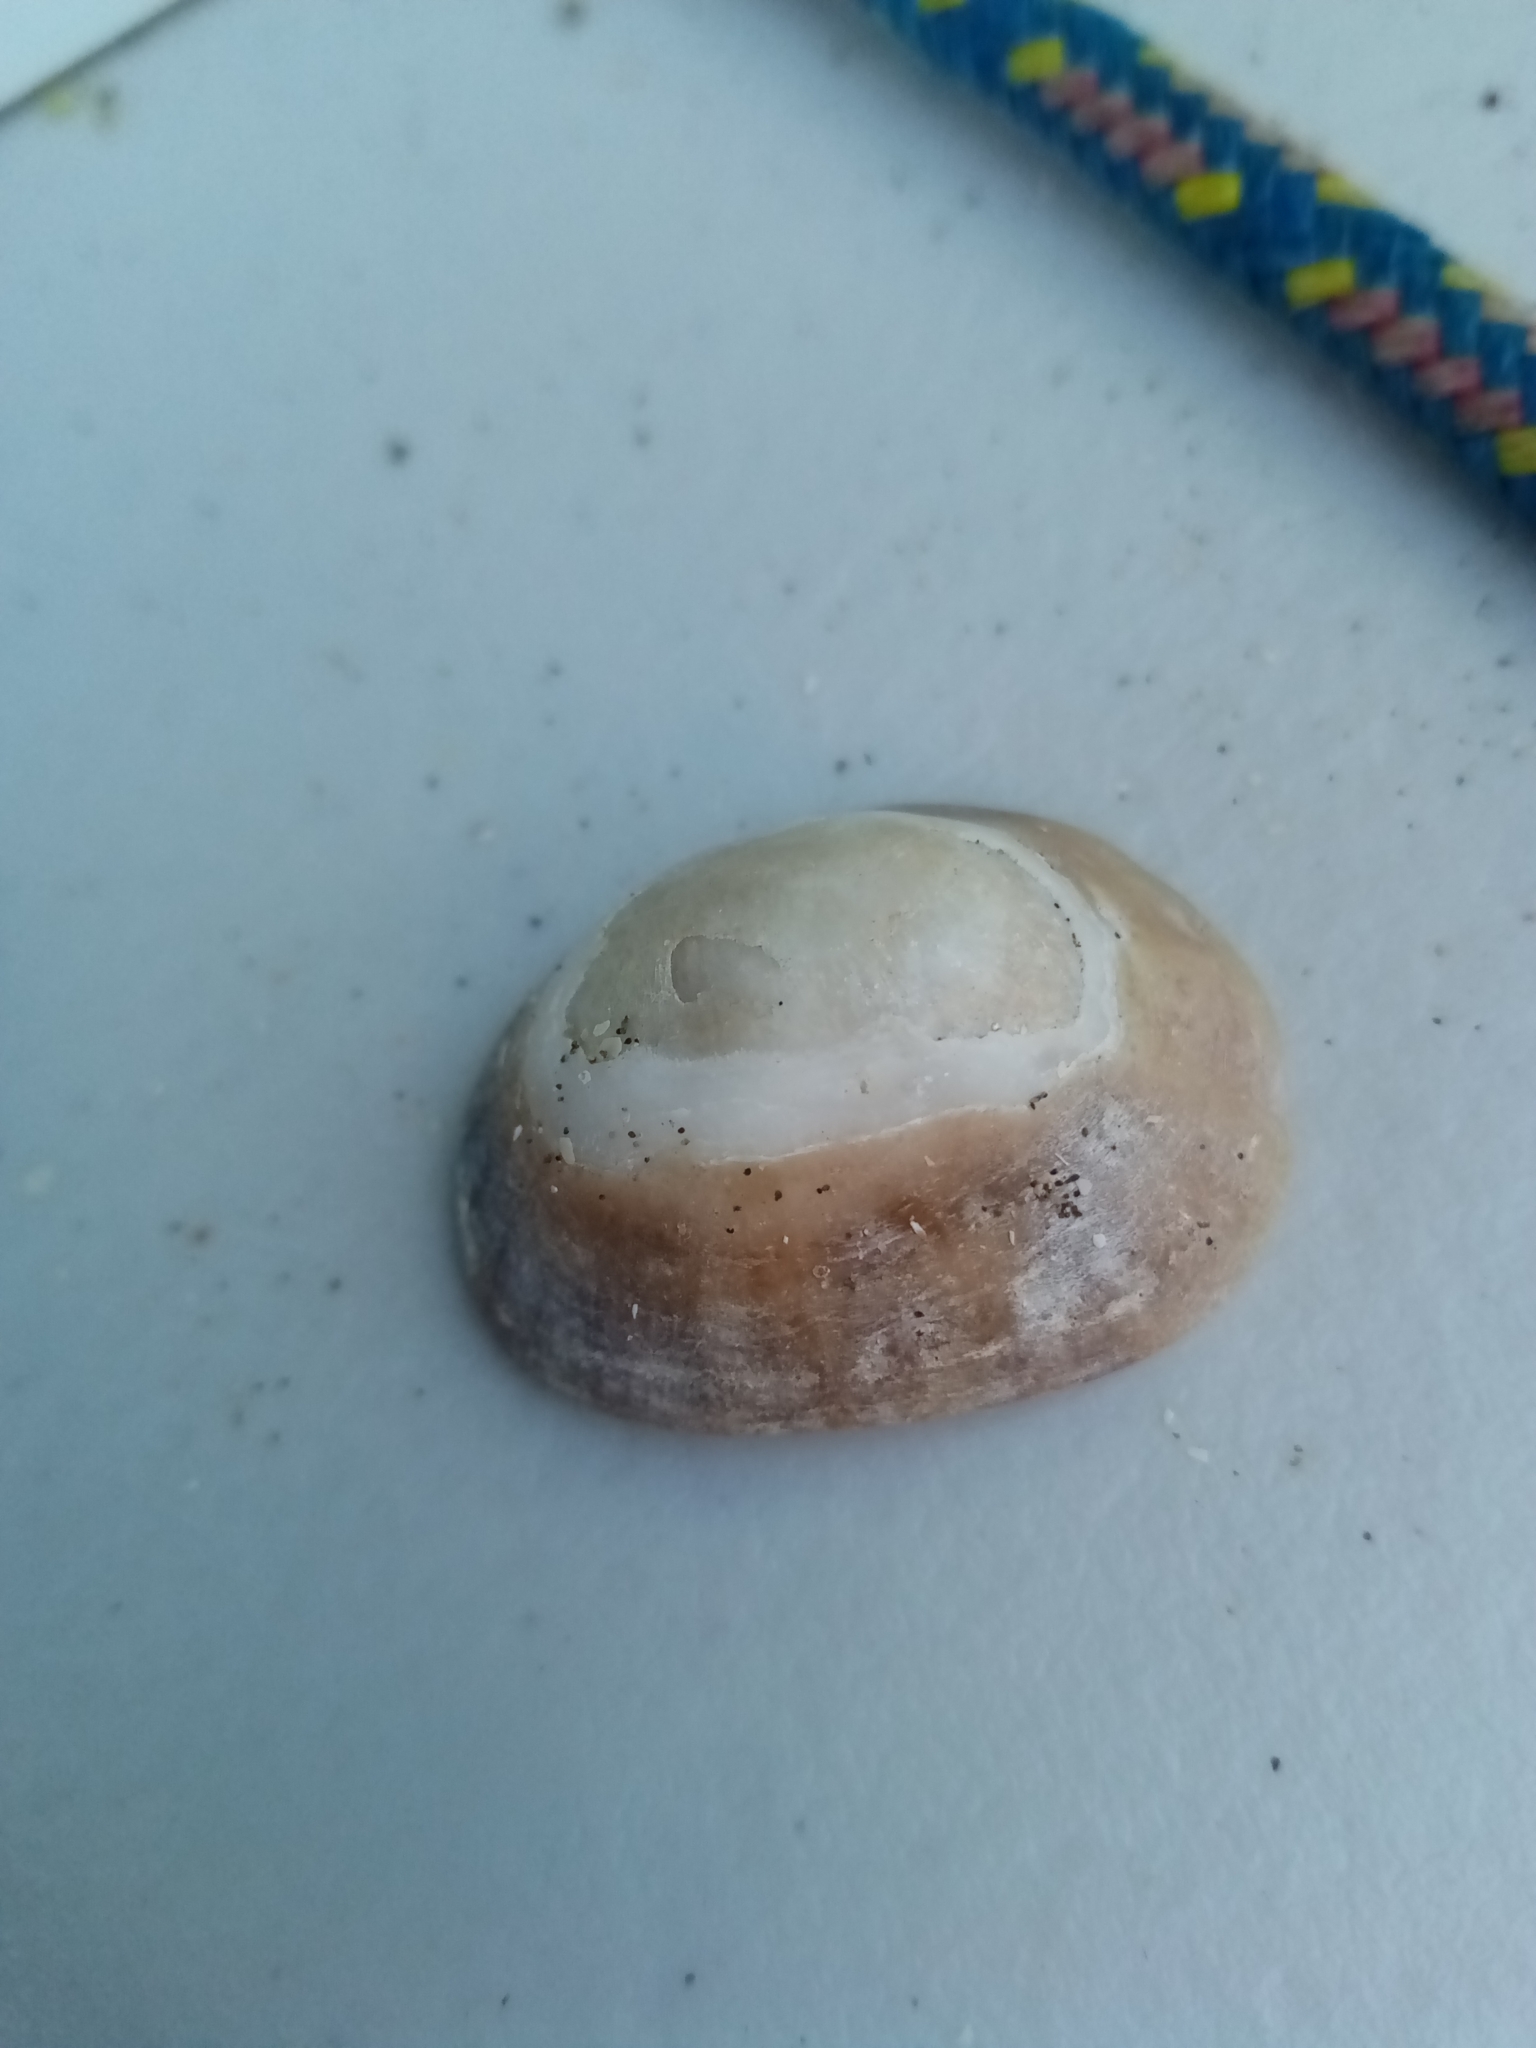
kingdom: Animalia
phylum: Mollusca
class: Gastropoda
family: Patellidae
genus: Patella
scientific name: Patella
